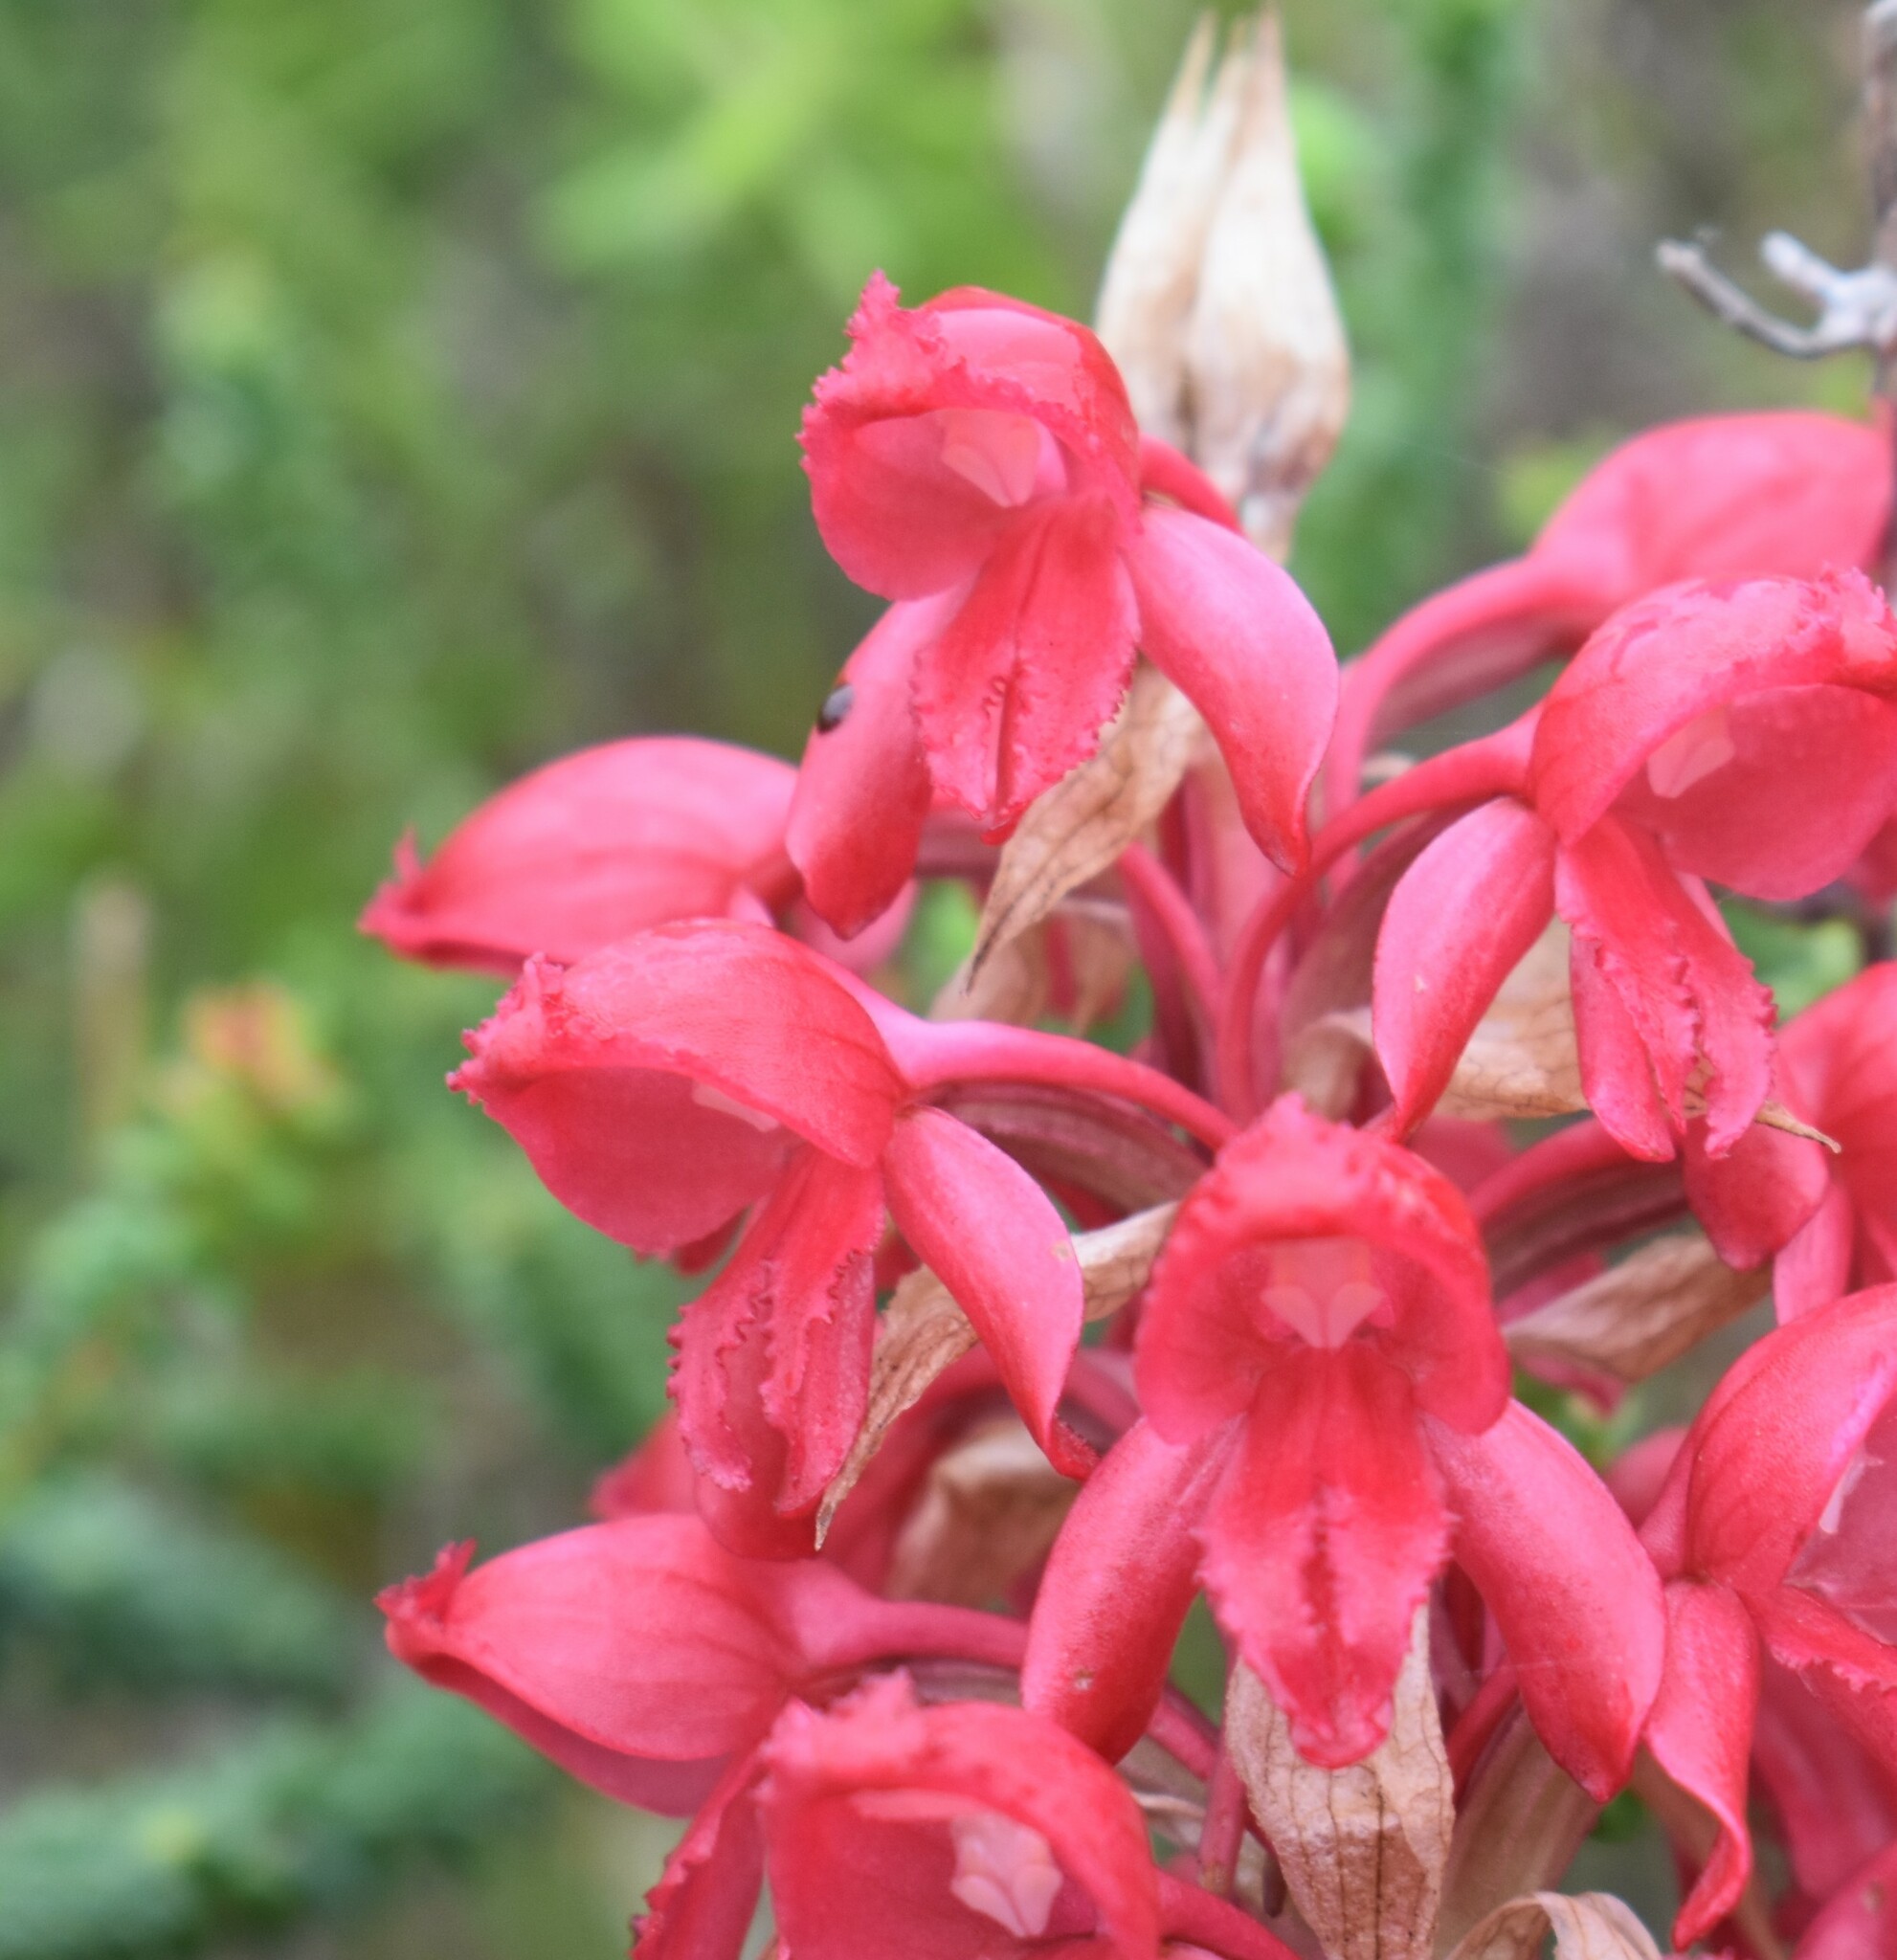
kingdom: Plantae
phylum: Tracheophyta
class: Liliopsida
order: Asparagales
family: Orchidaceae
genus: Satyrium
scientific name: Satyrium princeps
